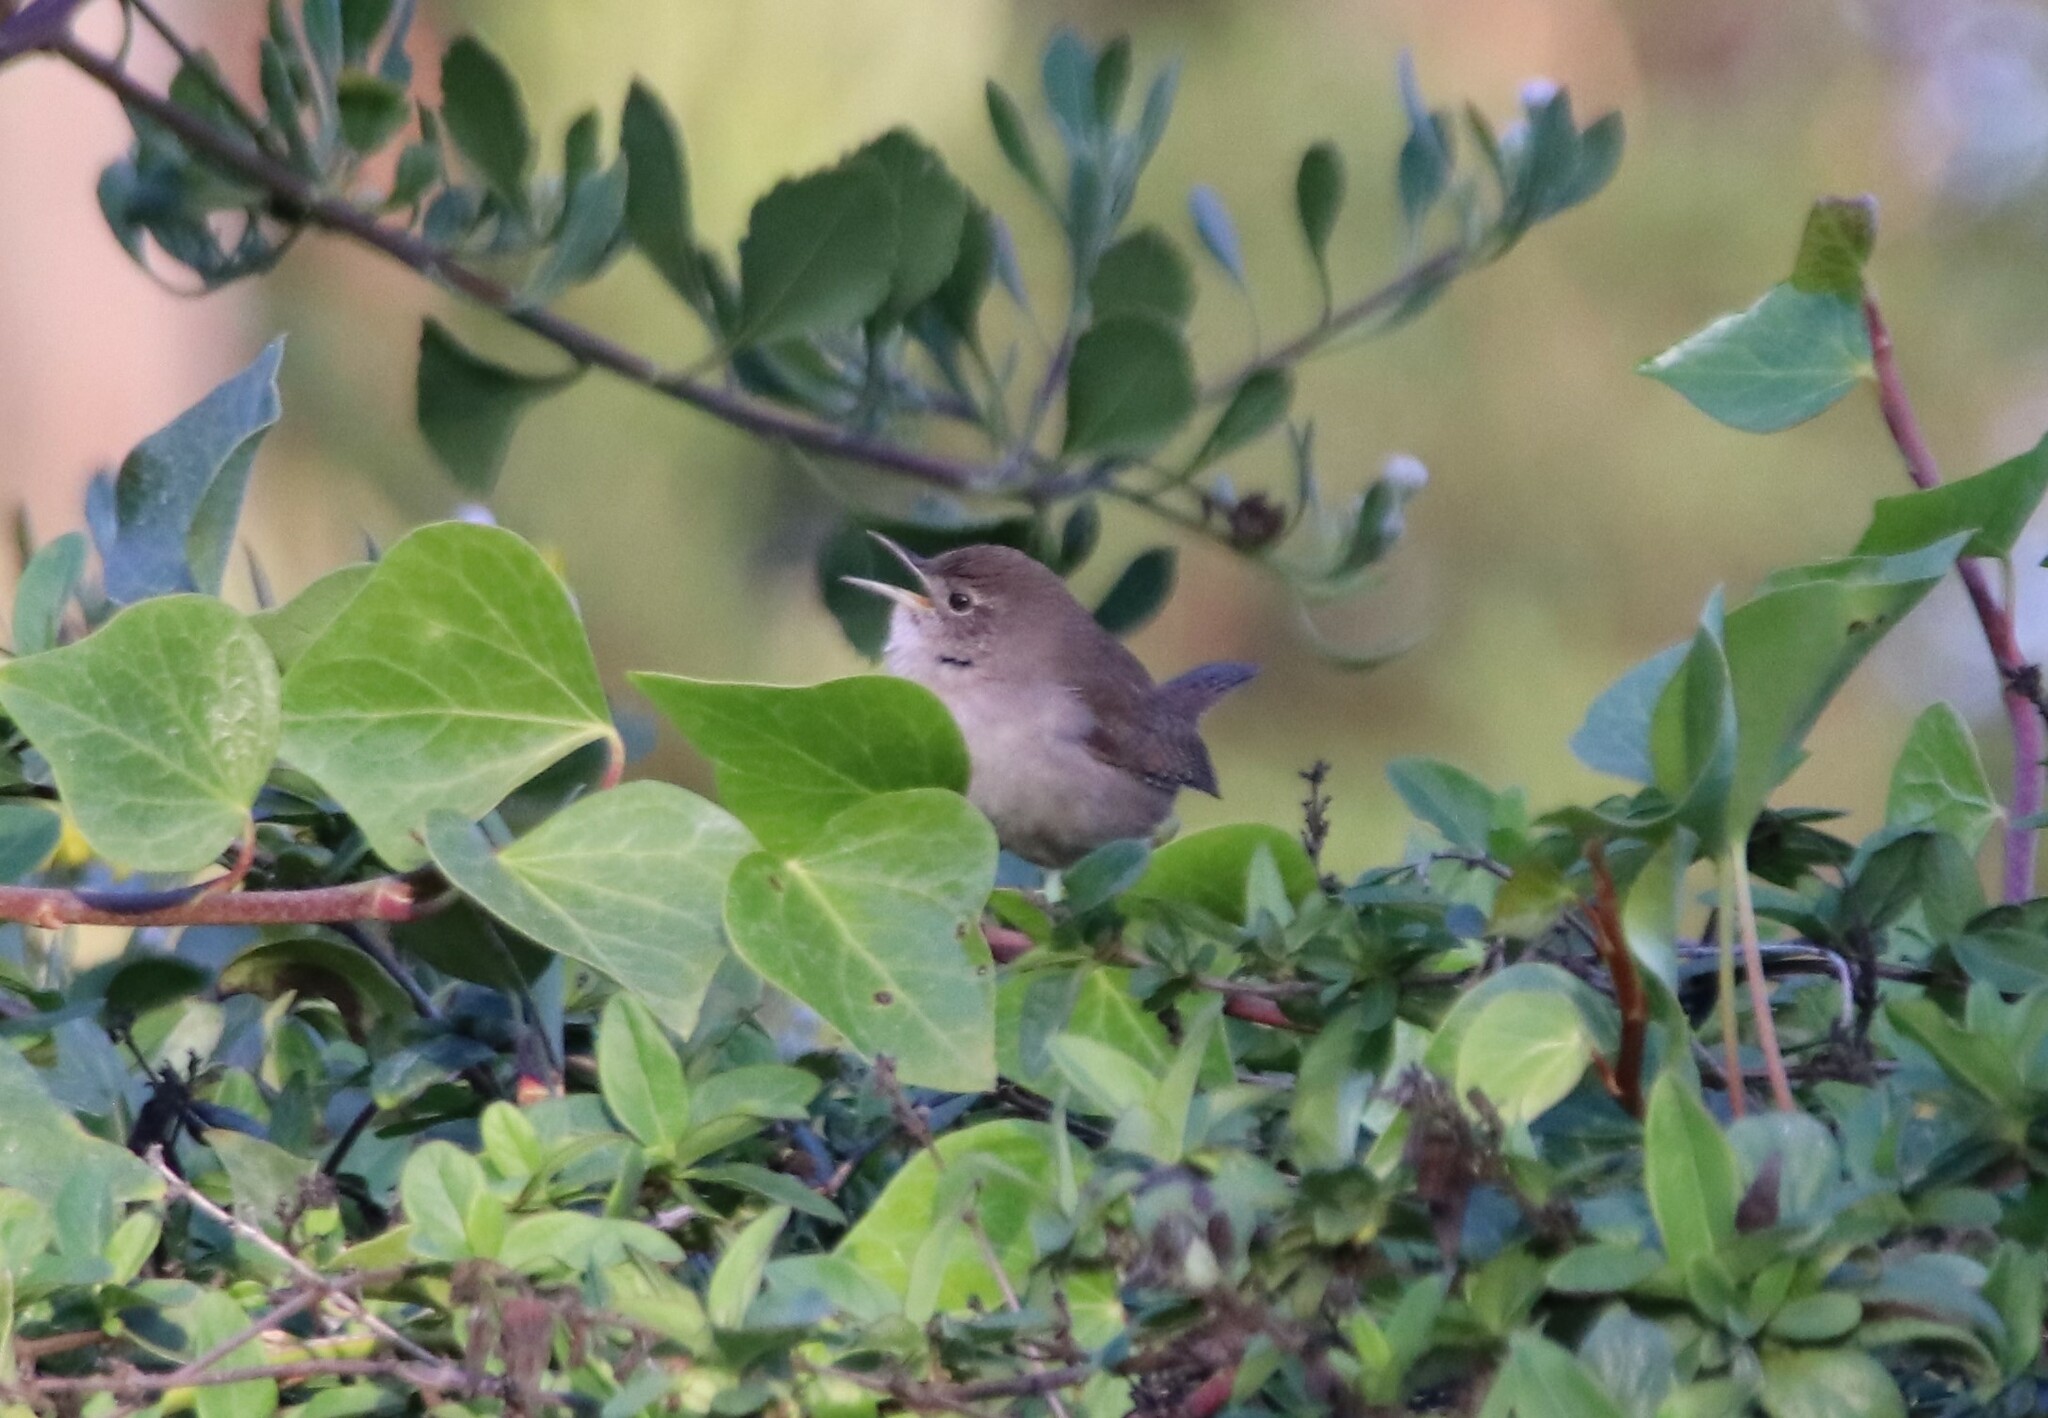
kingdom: Animalia
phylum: Chordata
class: Aves
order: Passeriformes
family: Troglodytidae
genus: Troglodytes
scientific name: Troglodytes aedon
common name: House wren
